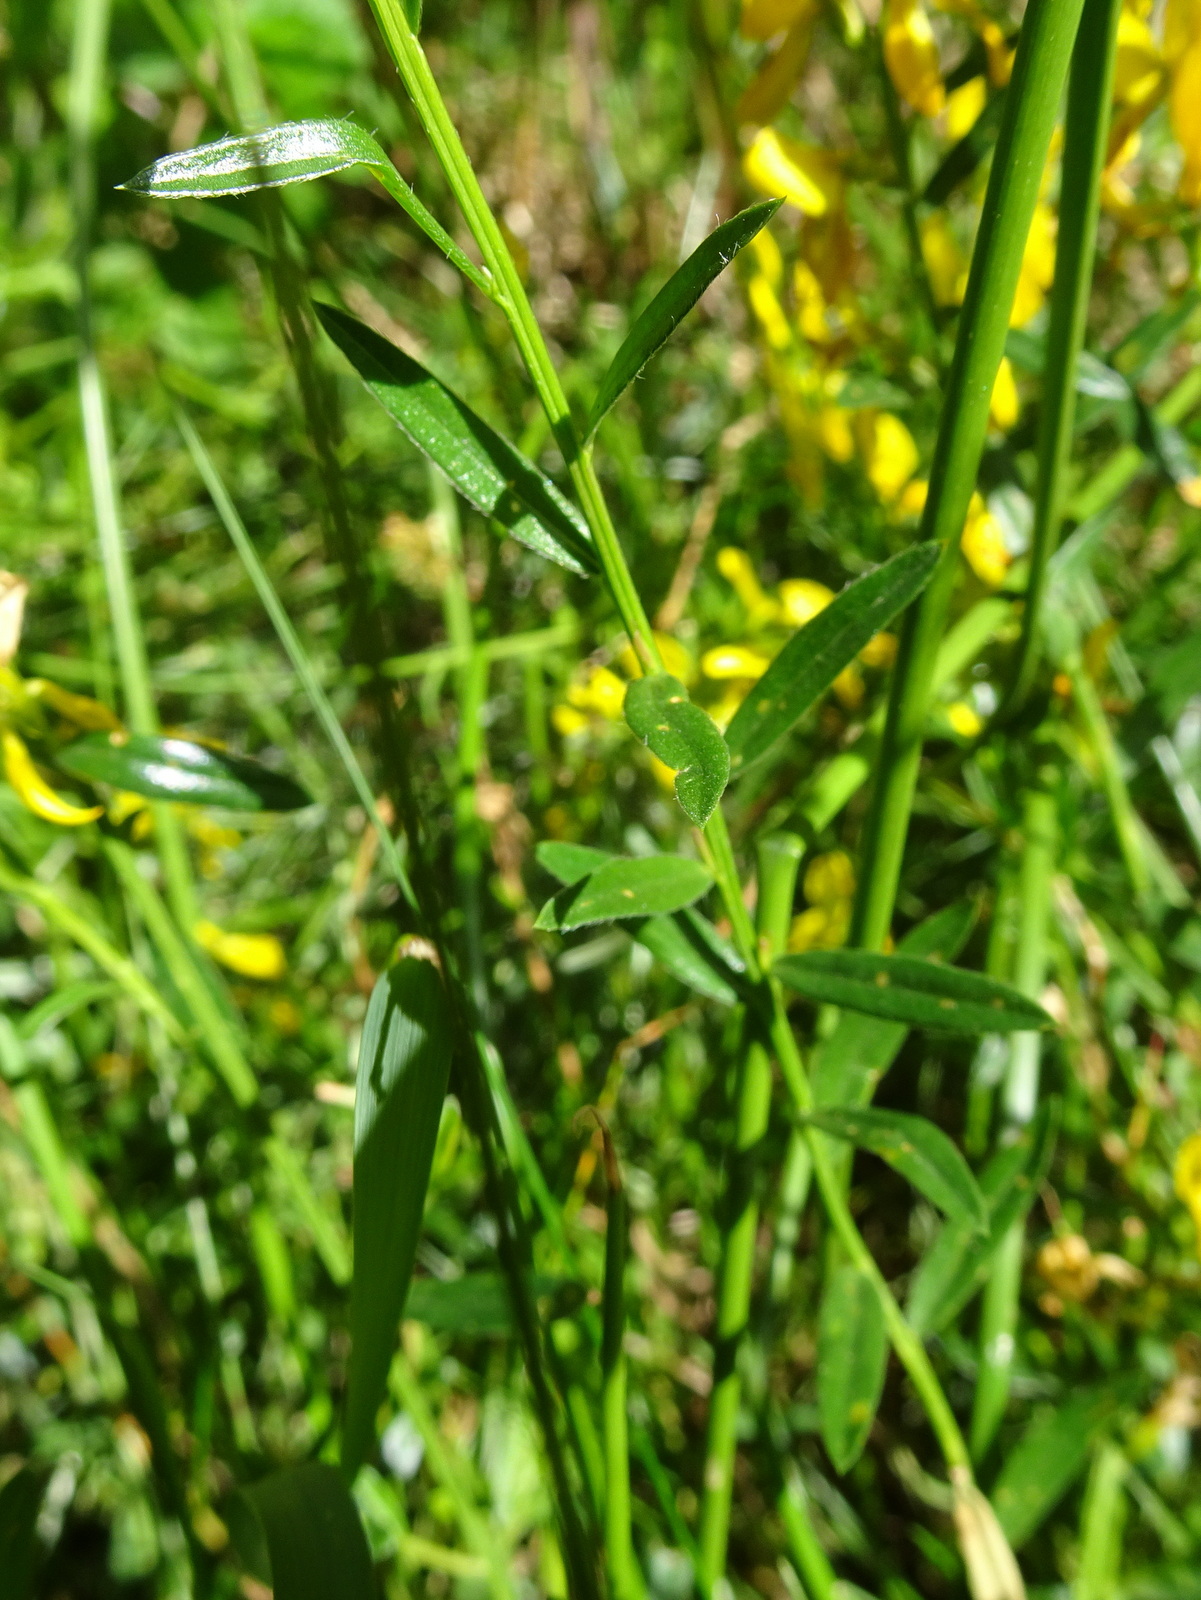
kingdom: Plantae
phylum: Tracheophyta
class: Magnoliopsida
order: Fabales
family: Fabaceae
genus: Genista
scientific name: Genista tinctoria
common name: Dyer's greenweed
